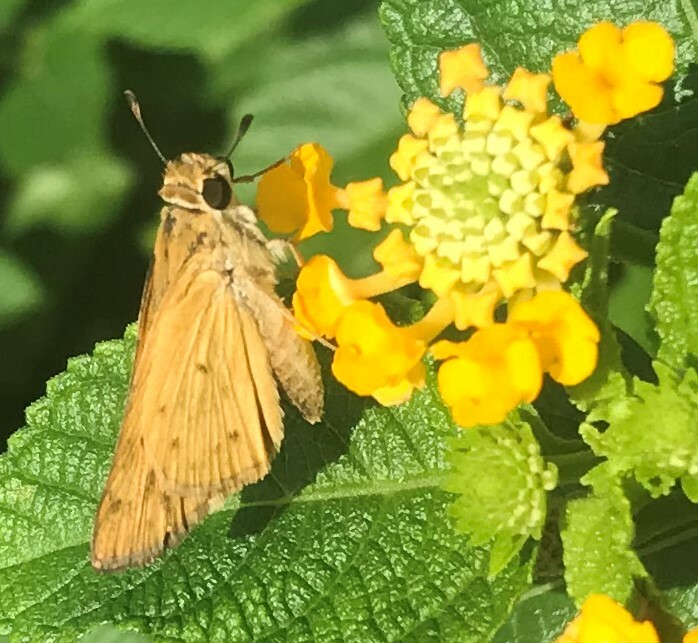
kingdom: Animalia
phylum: Arthropoda
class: Insecta
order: Lepidoptera
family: Hesperiidae
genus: Hylephila
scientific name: Hylephila phyleus
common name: Fiery skipper
